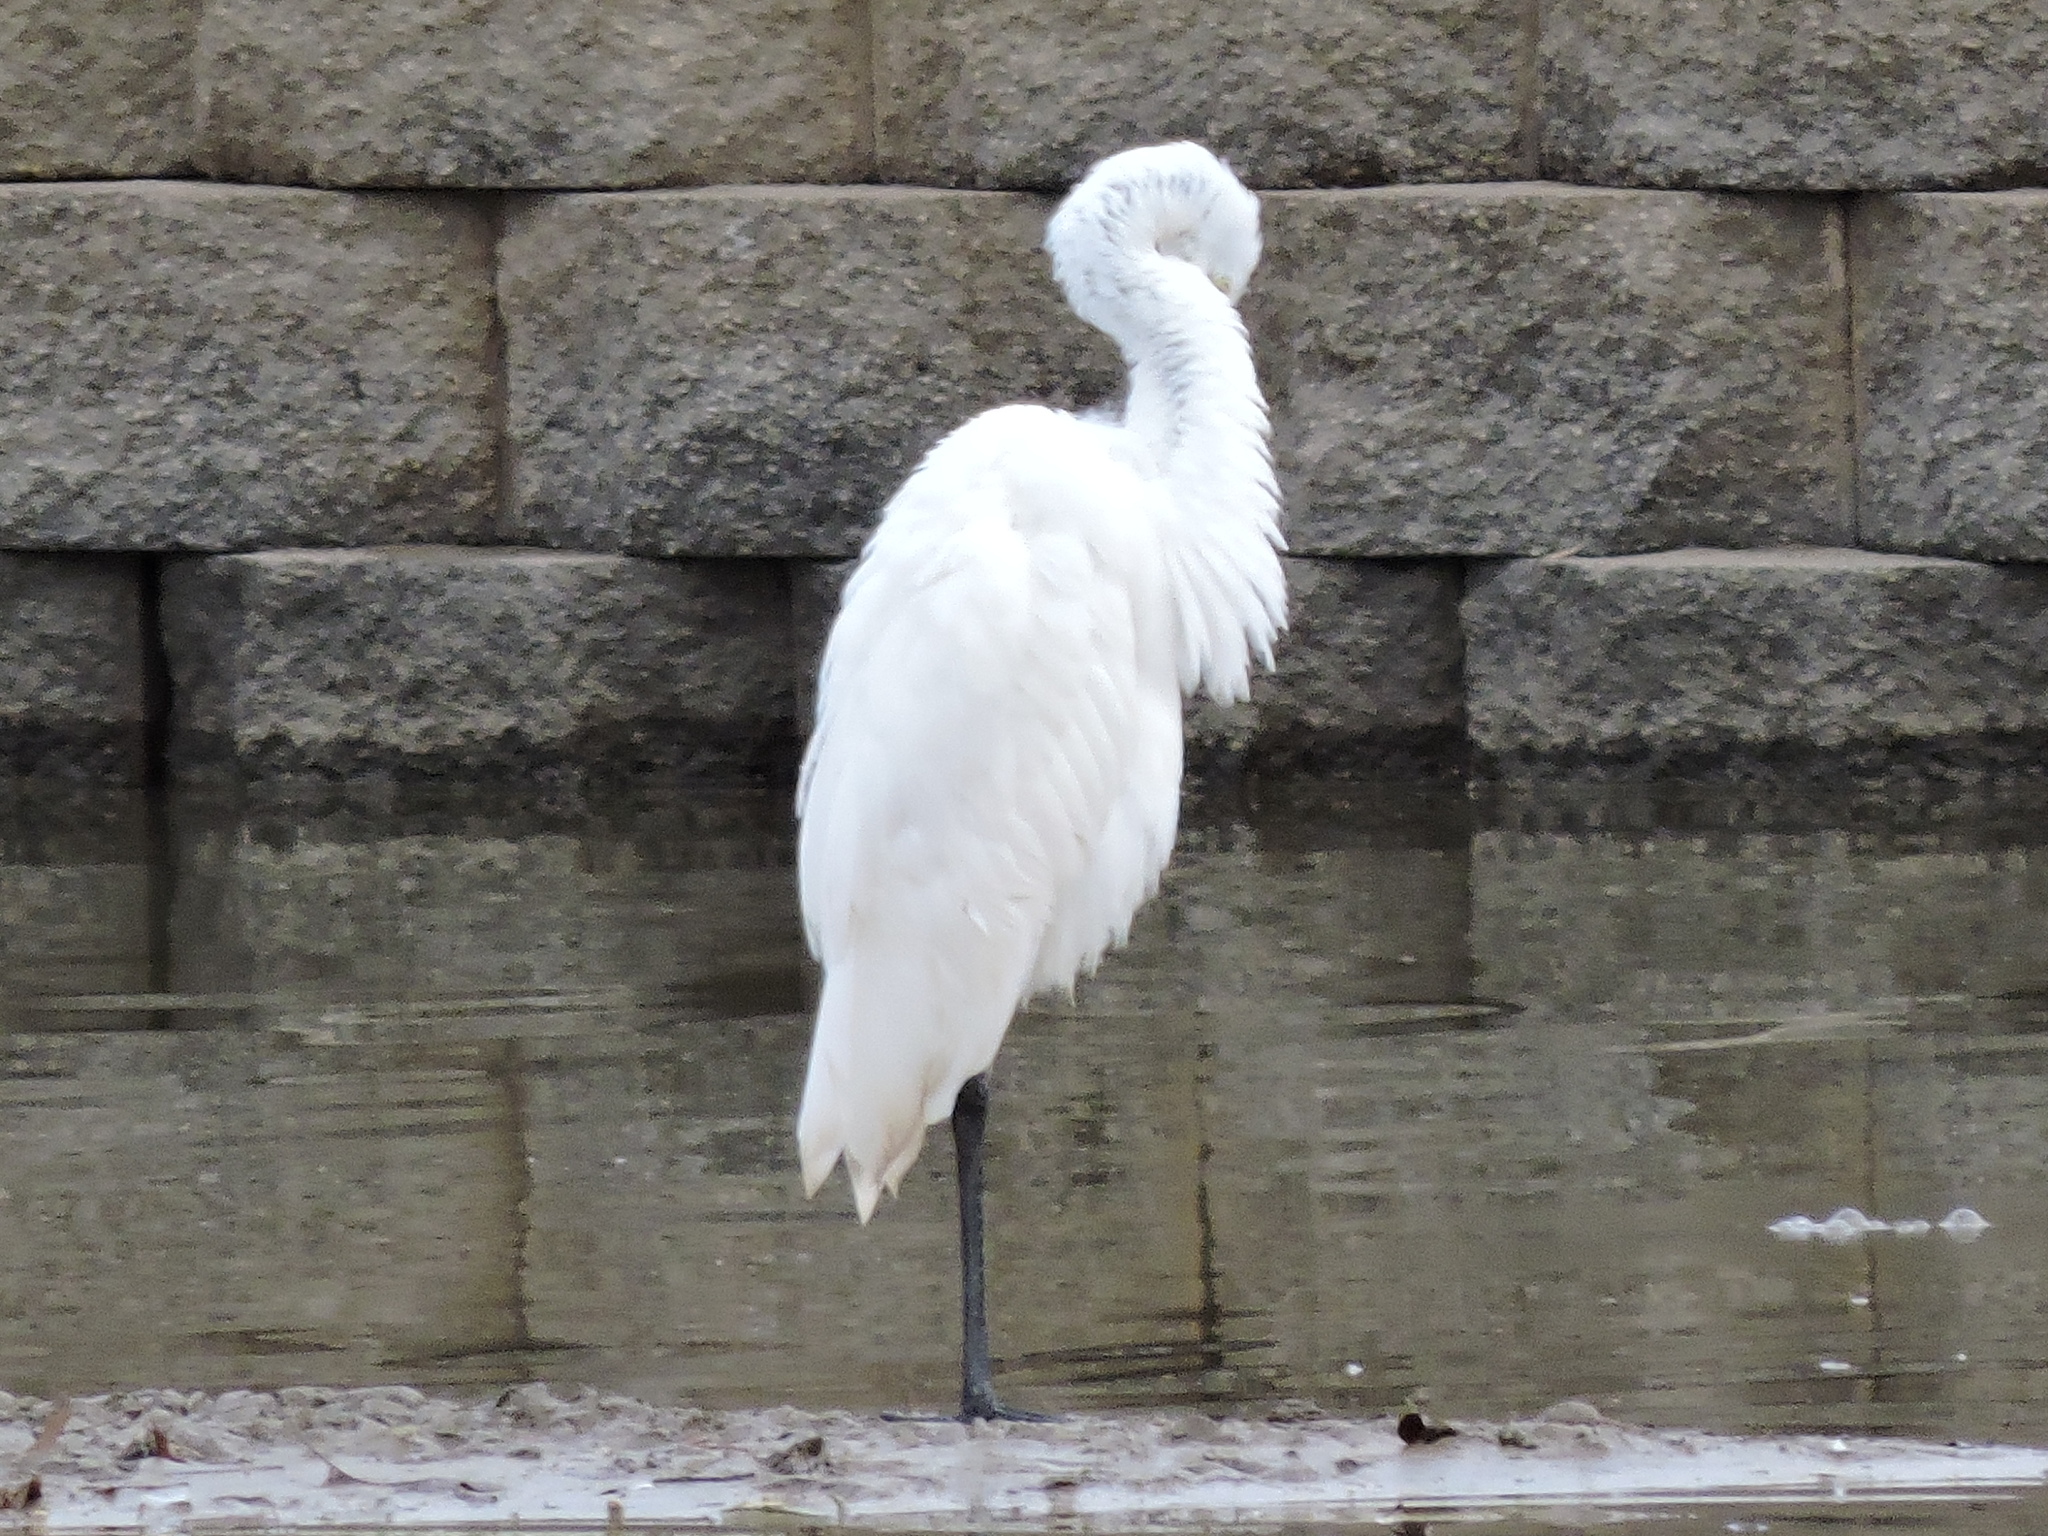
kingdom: Animalia
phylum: Chordata
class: Aves
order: Pelecaniformes
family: Ardeidae
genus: Ardea
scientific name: Ardea alba
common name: Great egret
